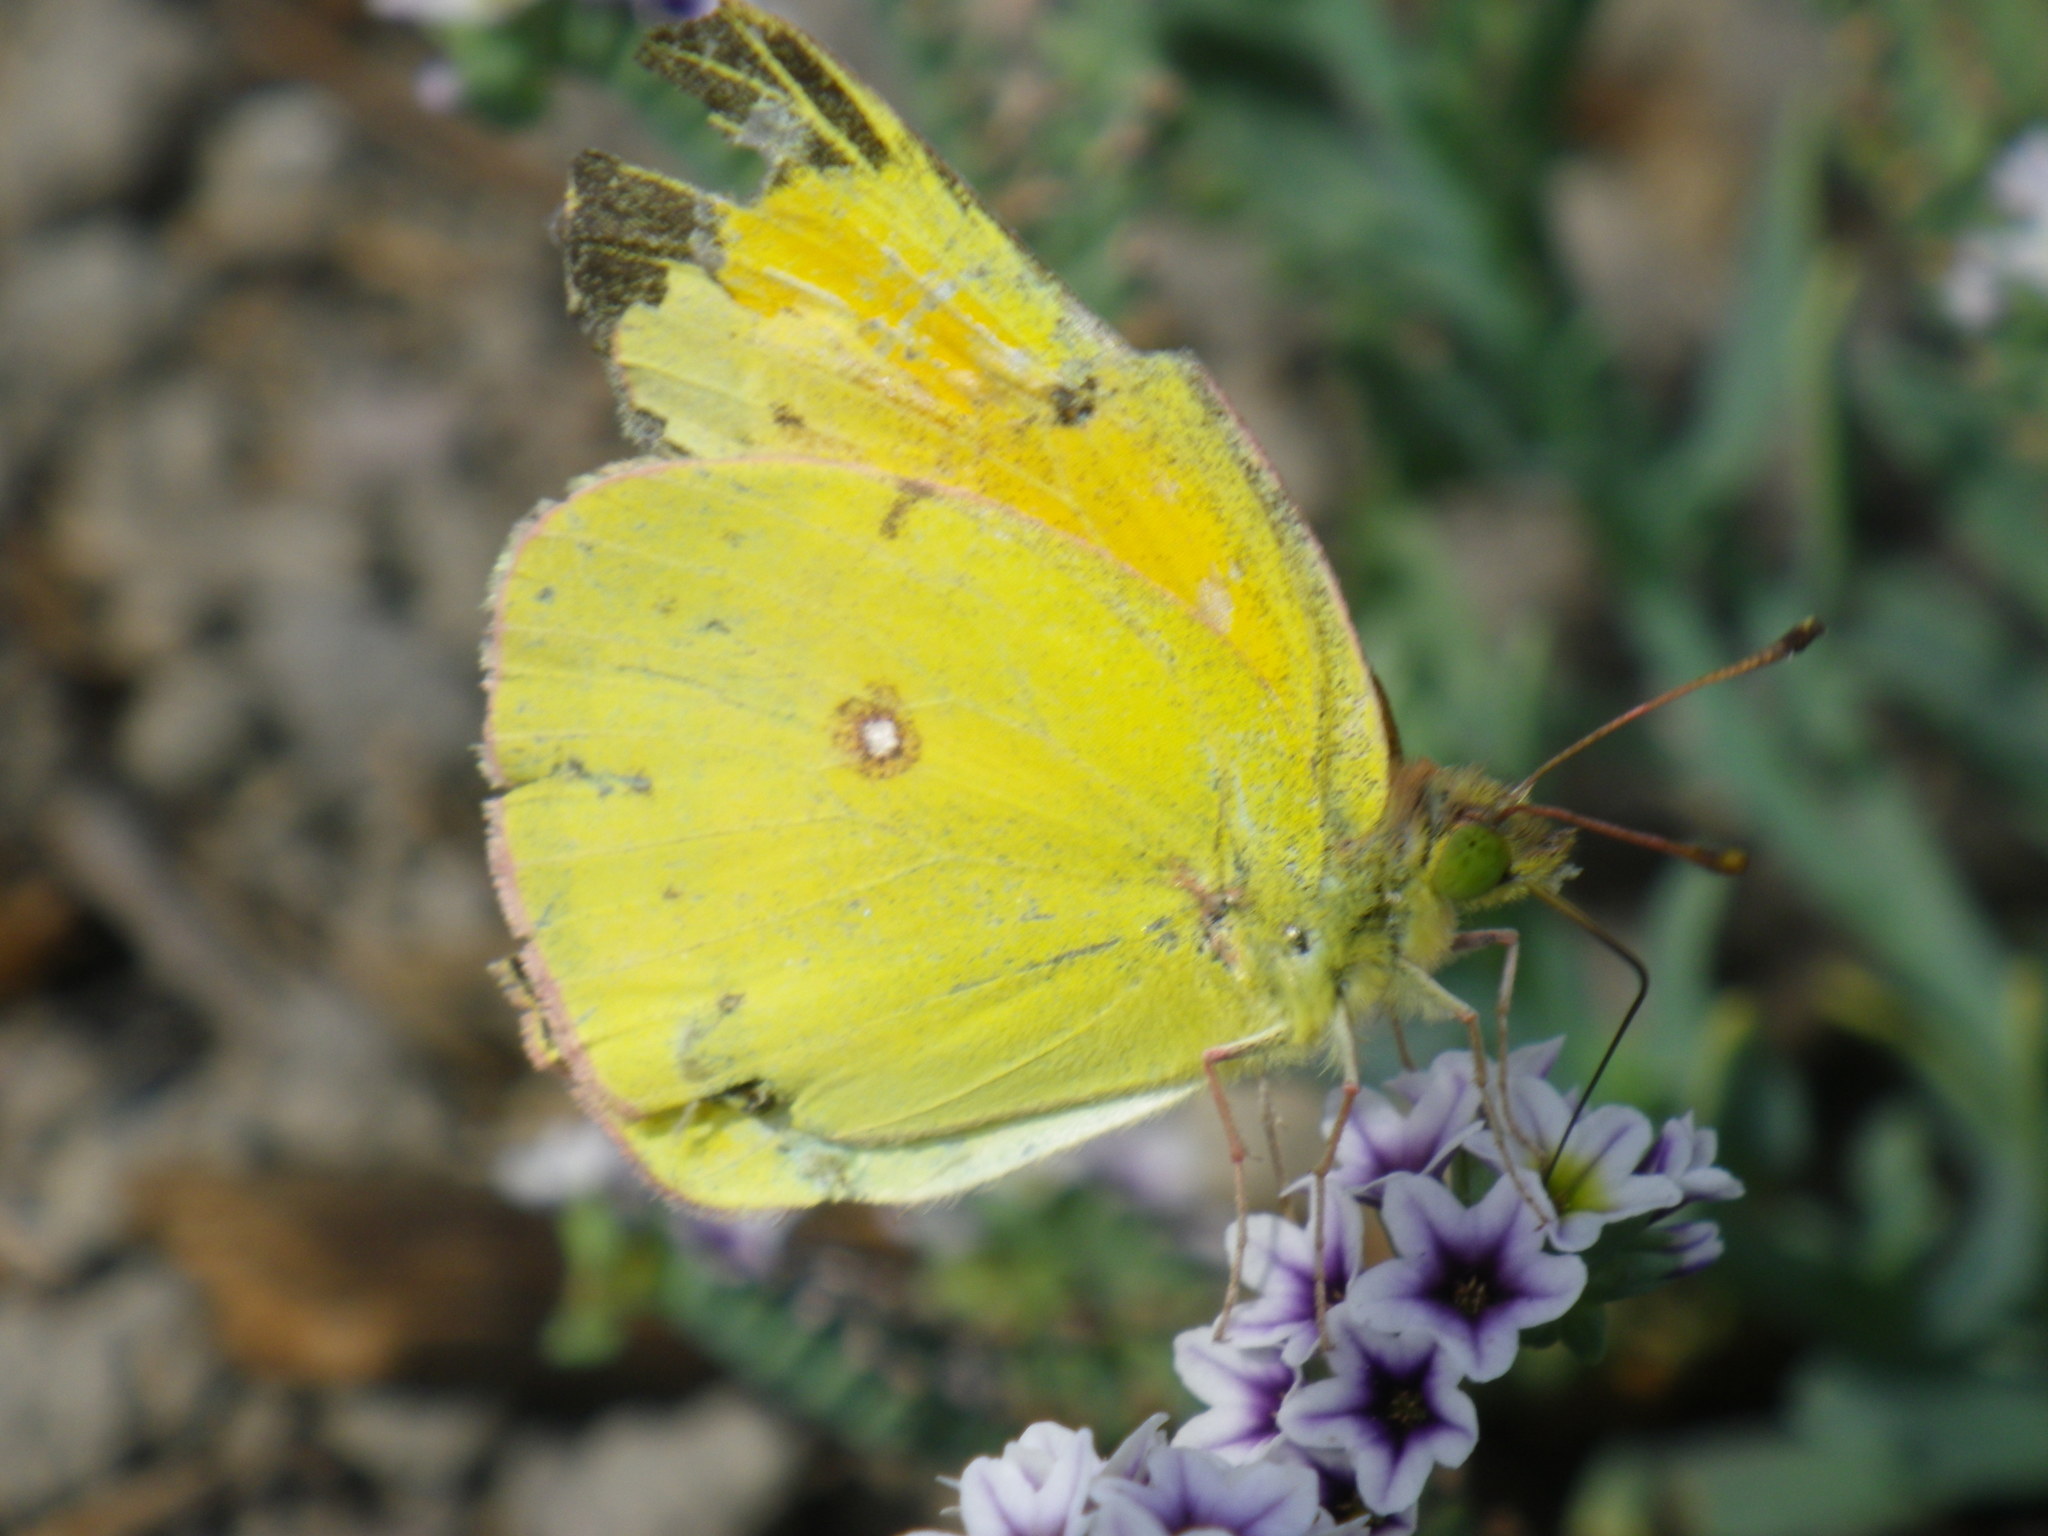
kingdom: Animalia
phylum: Arthropoda
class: Insecta
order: Lepidoptera
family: Pieridae
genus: Colias
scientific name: Colias eurytheme
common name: Alfalfa butterfly
